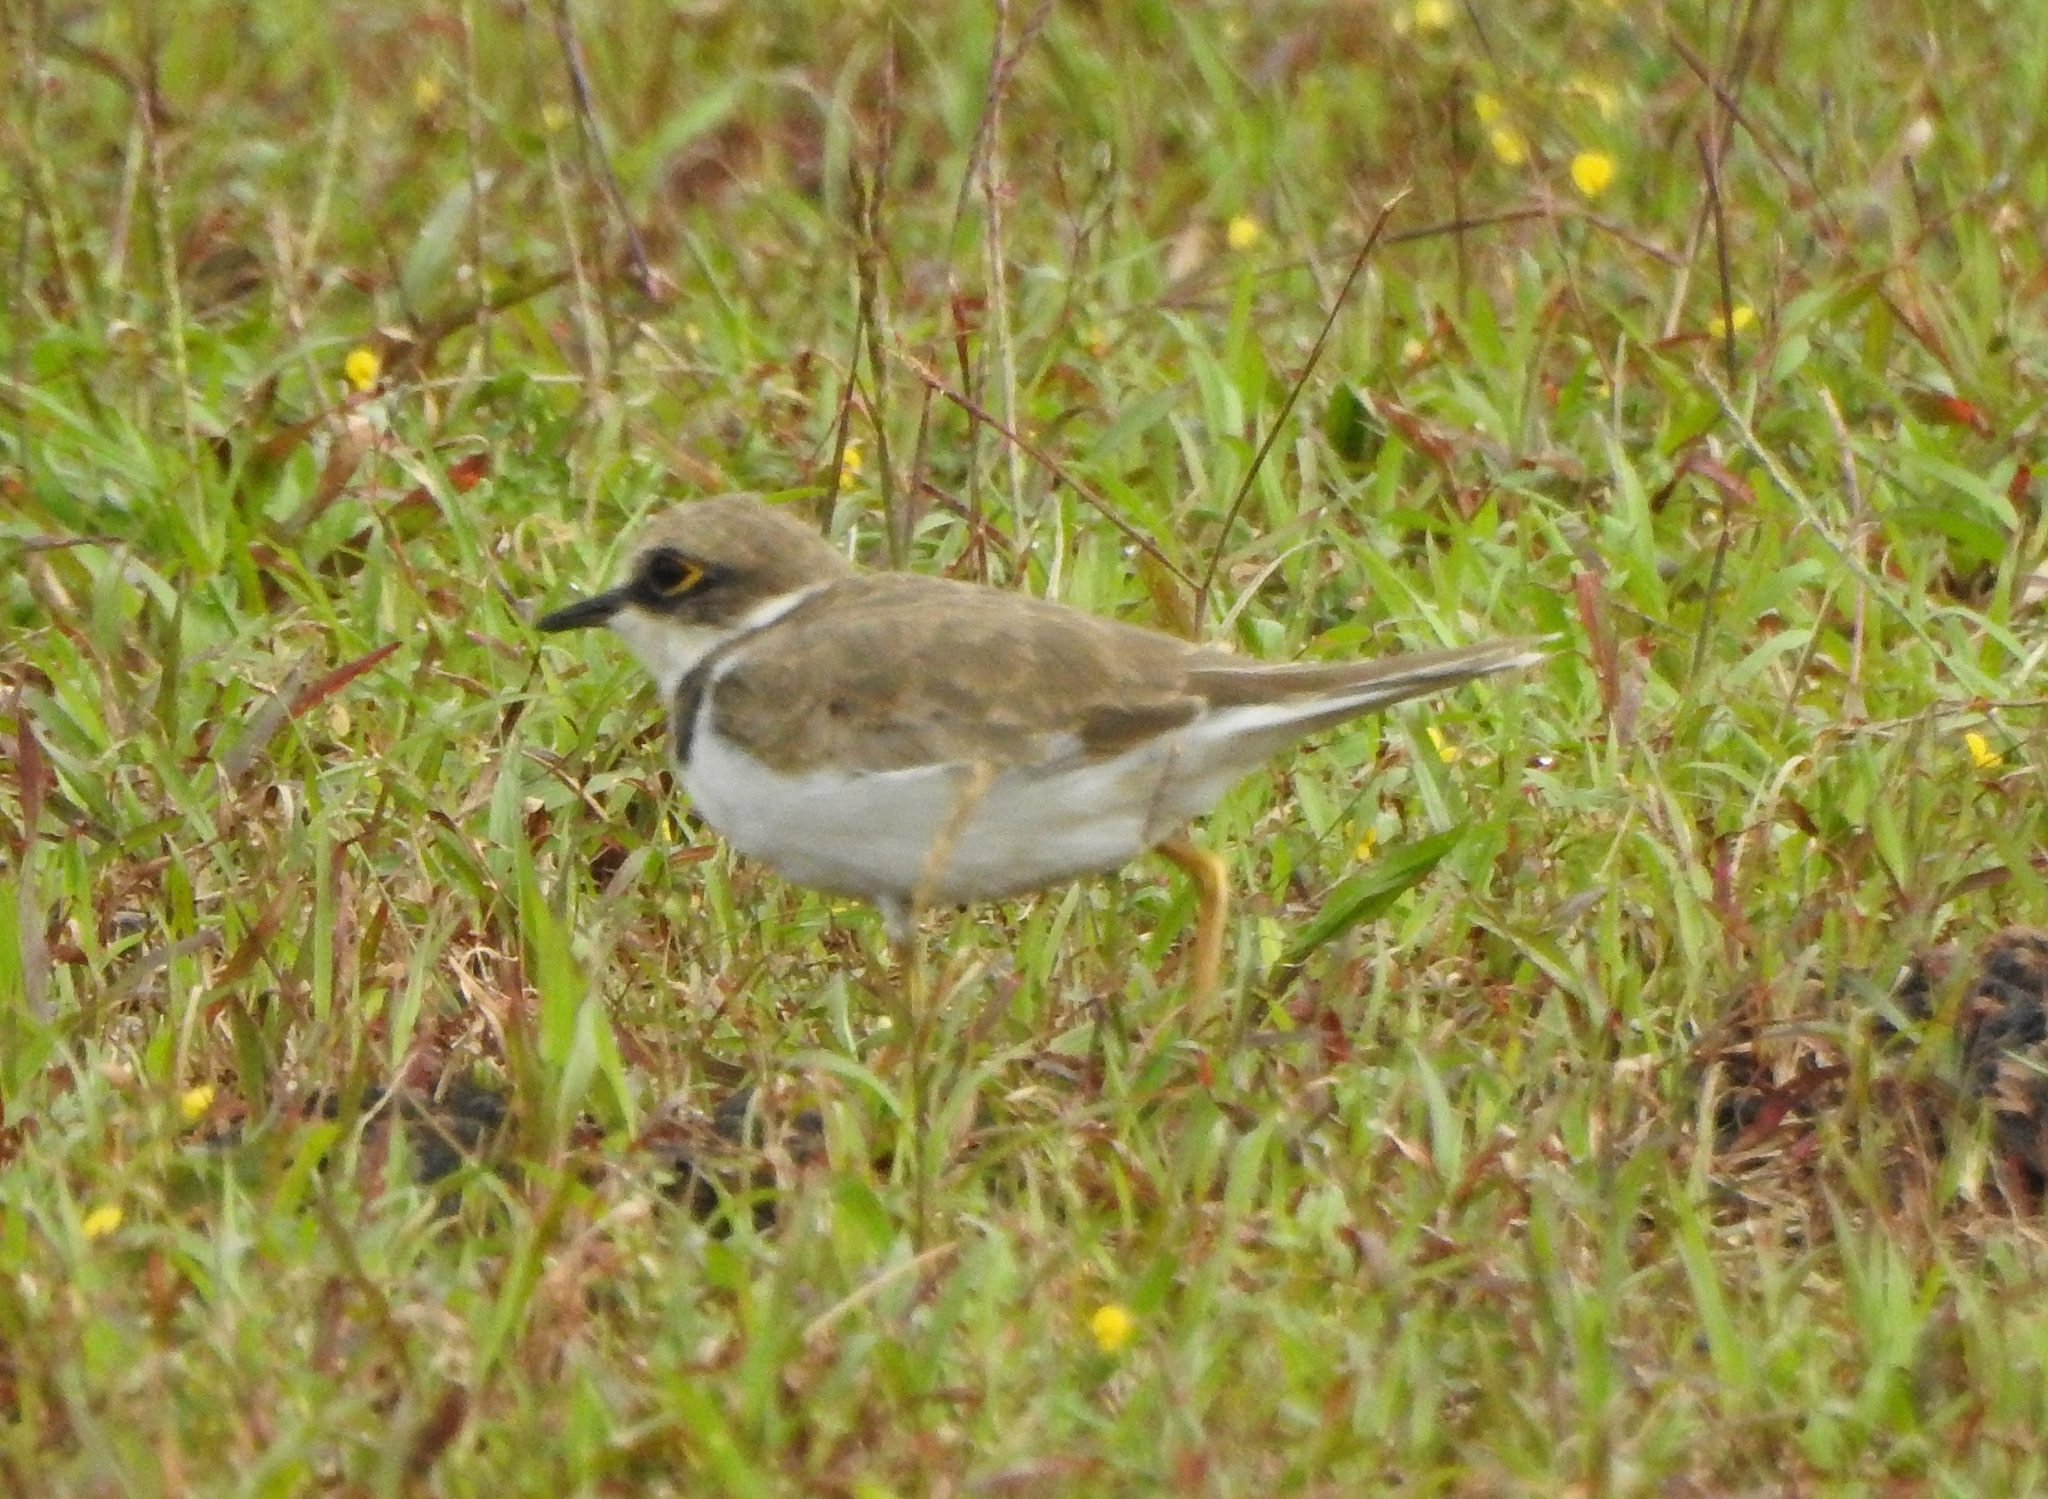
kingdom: Animalia
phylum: Chordata
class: Aves
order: Charadriiformes
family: Charadriidae
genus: Charadrius
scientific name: Charadrius dubius
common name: Little ringed plover
